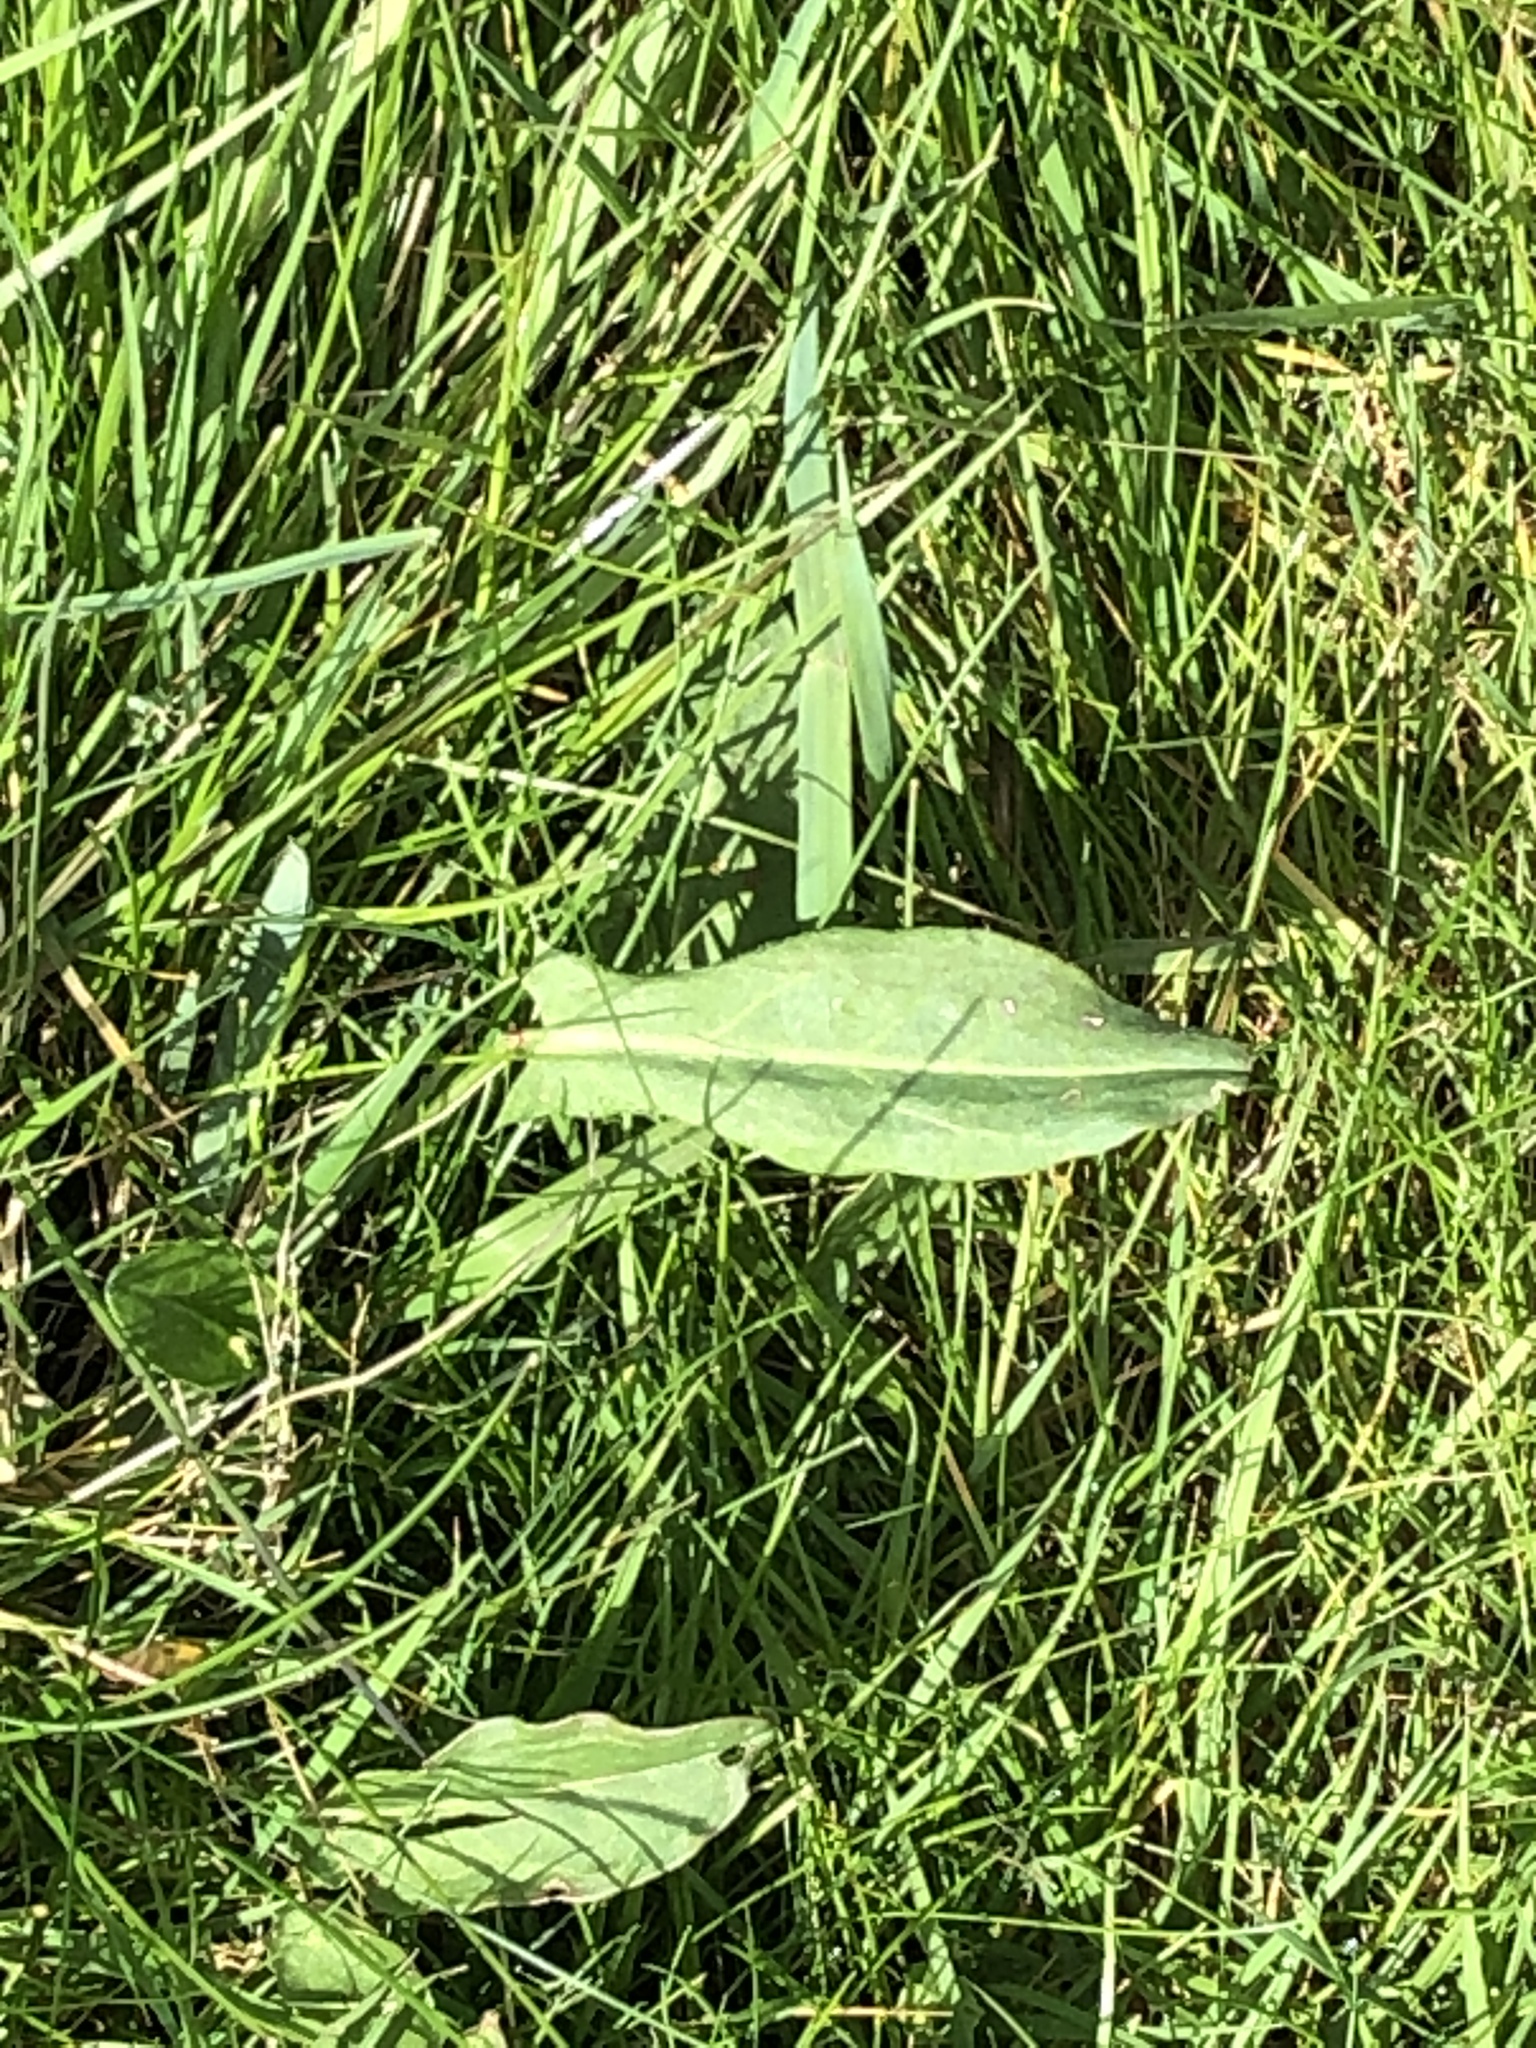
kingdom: Plantae
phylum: Tracheophyta
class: Magnoliopsida
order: Caryophyllales
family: Polygonaceae
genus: Rumex
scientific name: Rumex acetosa
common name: Garden sorrel
